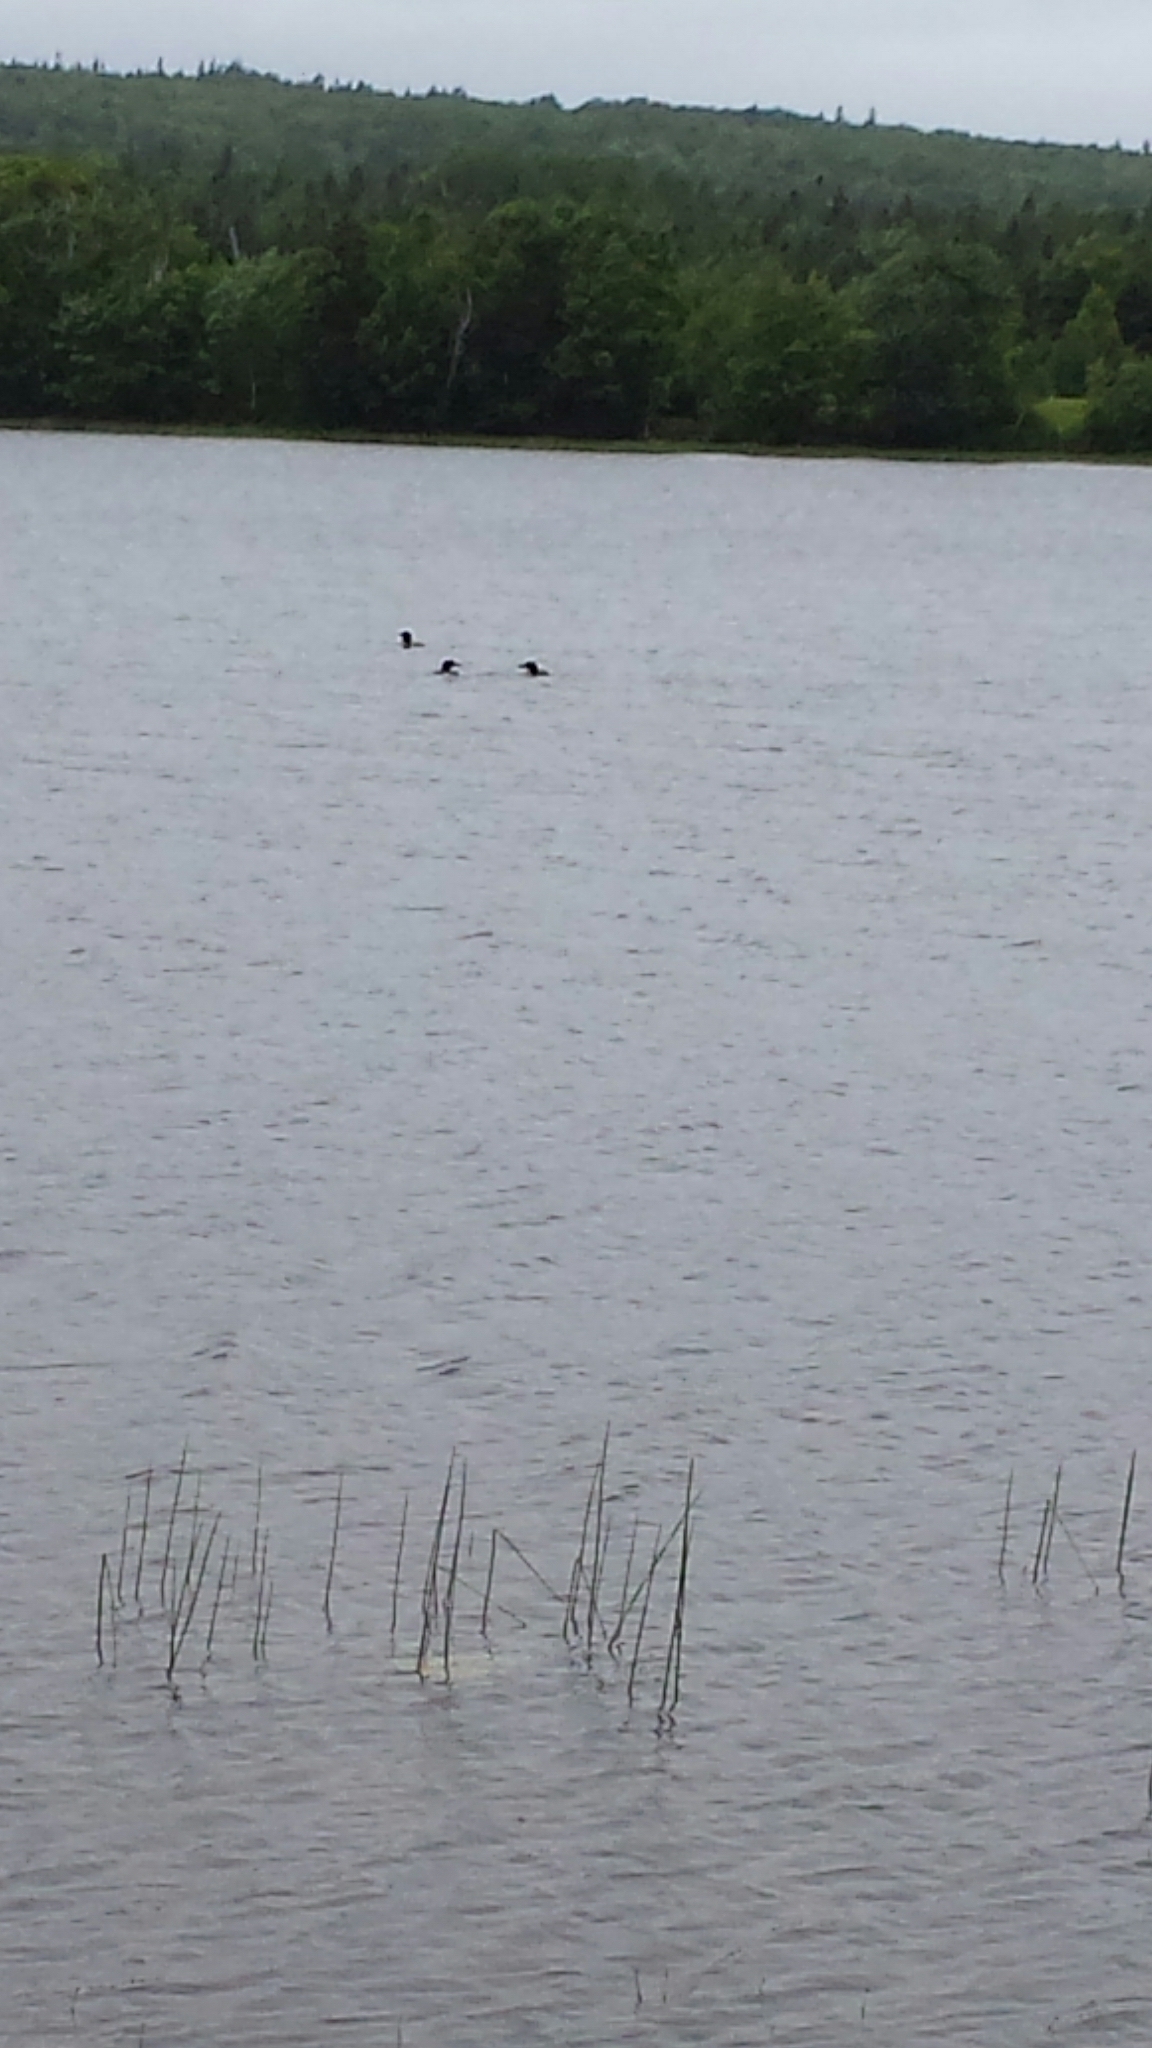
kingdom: Animalia
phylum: Chordata
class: Aves
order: Gaviiformes
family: Gaviidae
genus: Gavia
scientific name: Gavia immer
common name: Common loon
